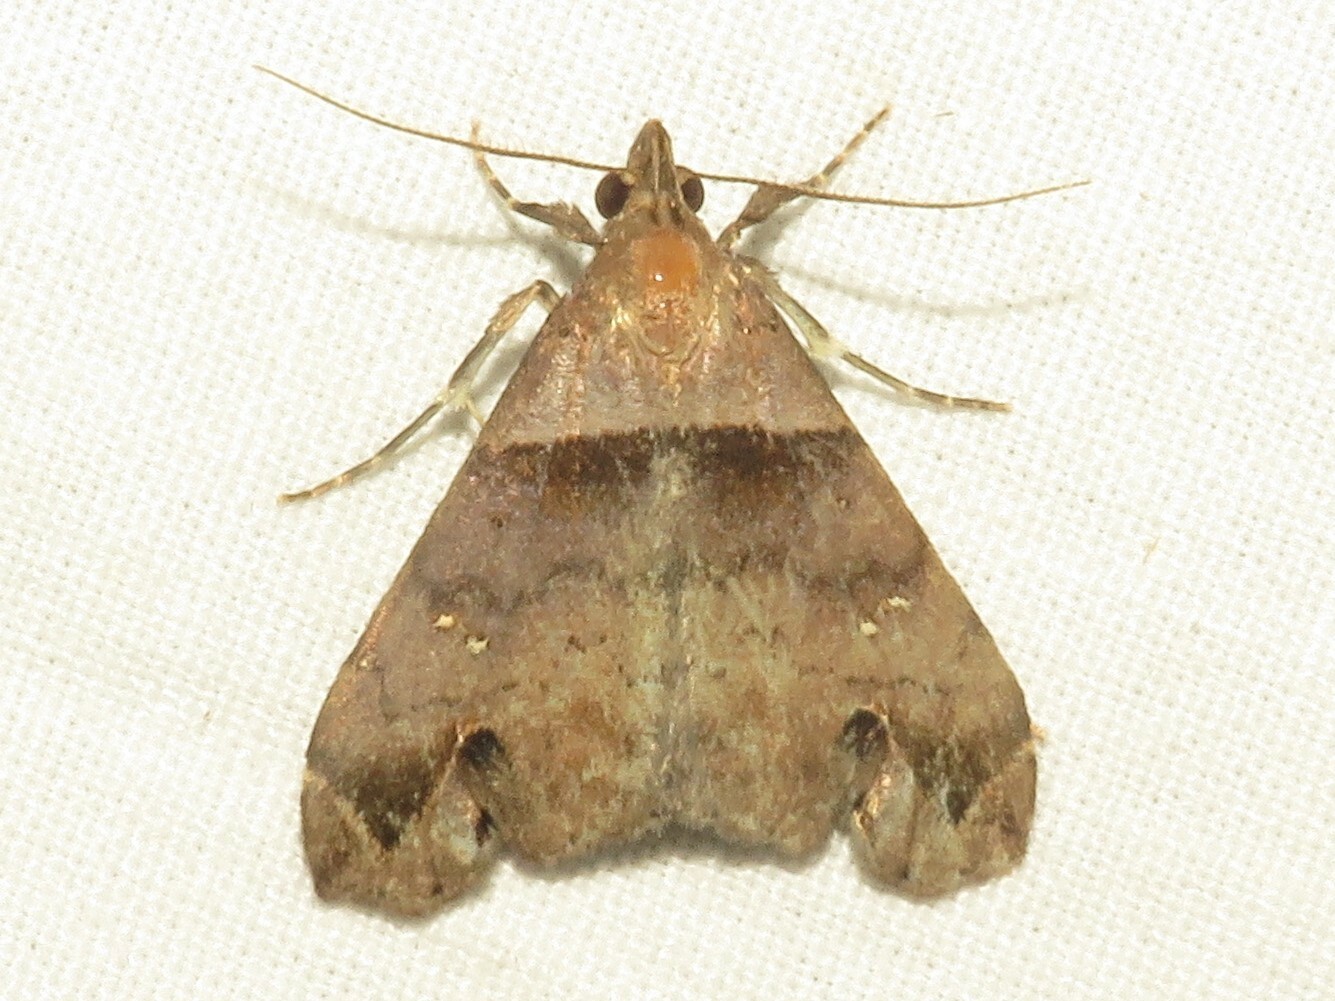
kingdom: Animalia
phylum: Arthropoda
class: Insecta
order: Lepidoptera
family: Erebidae
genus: Lascoria
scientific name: Lascoria ambigualis
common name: Ambiguous moth
